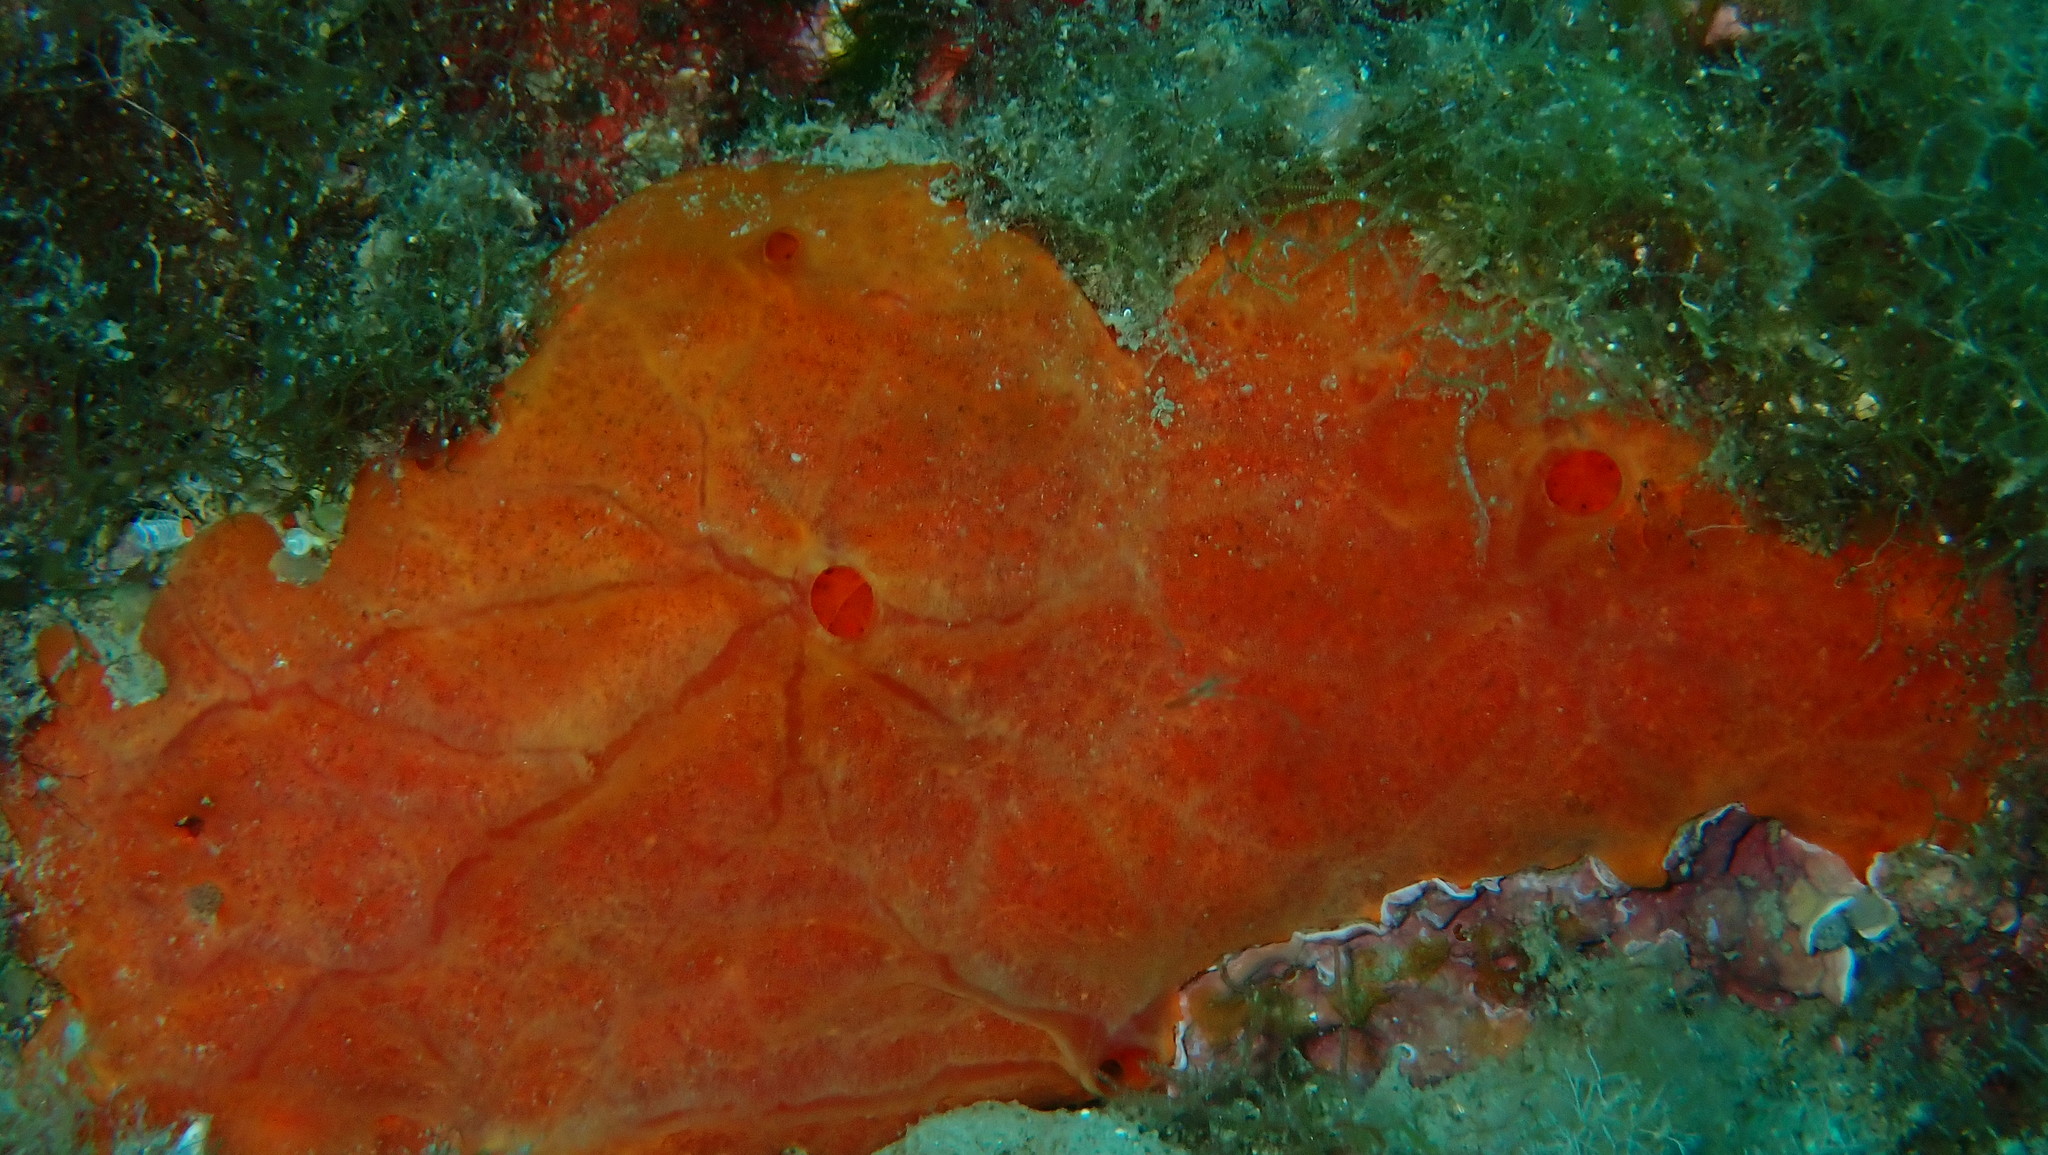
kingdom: Animalia
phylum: Porifera
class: Demospongiae
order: Poecilosclerida
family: Crambeidae
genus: Crambe
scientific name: Crambe crambe
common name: Orange-red encrusting sponge
